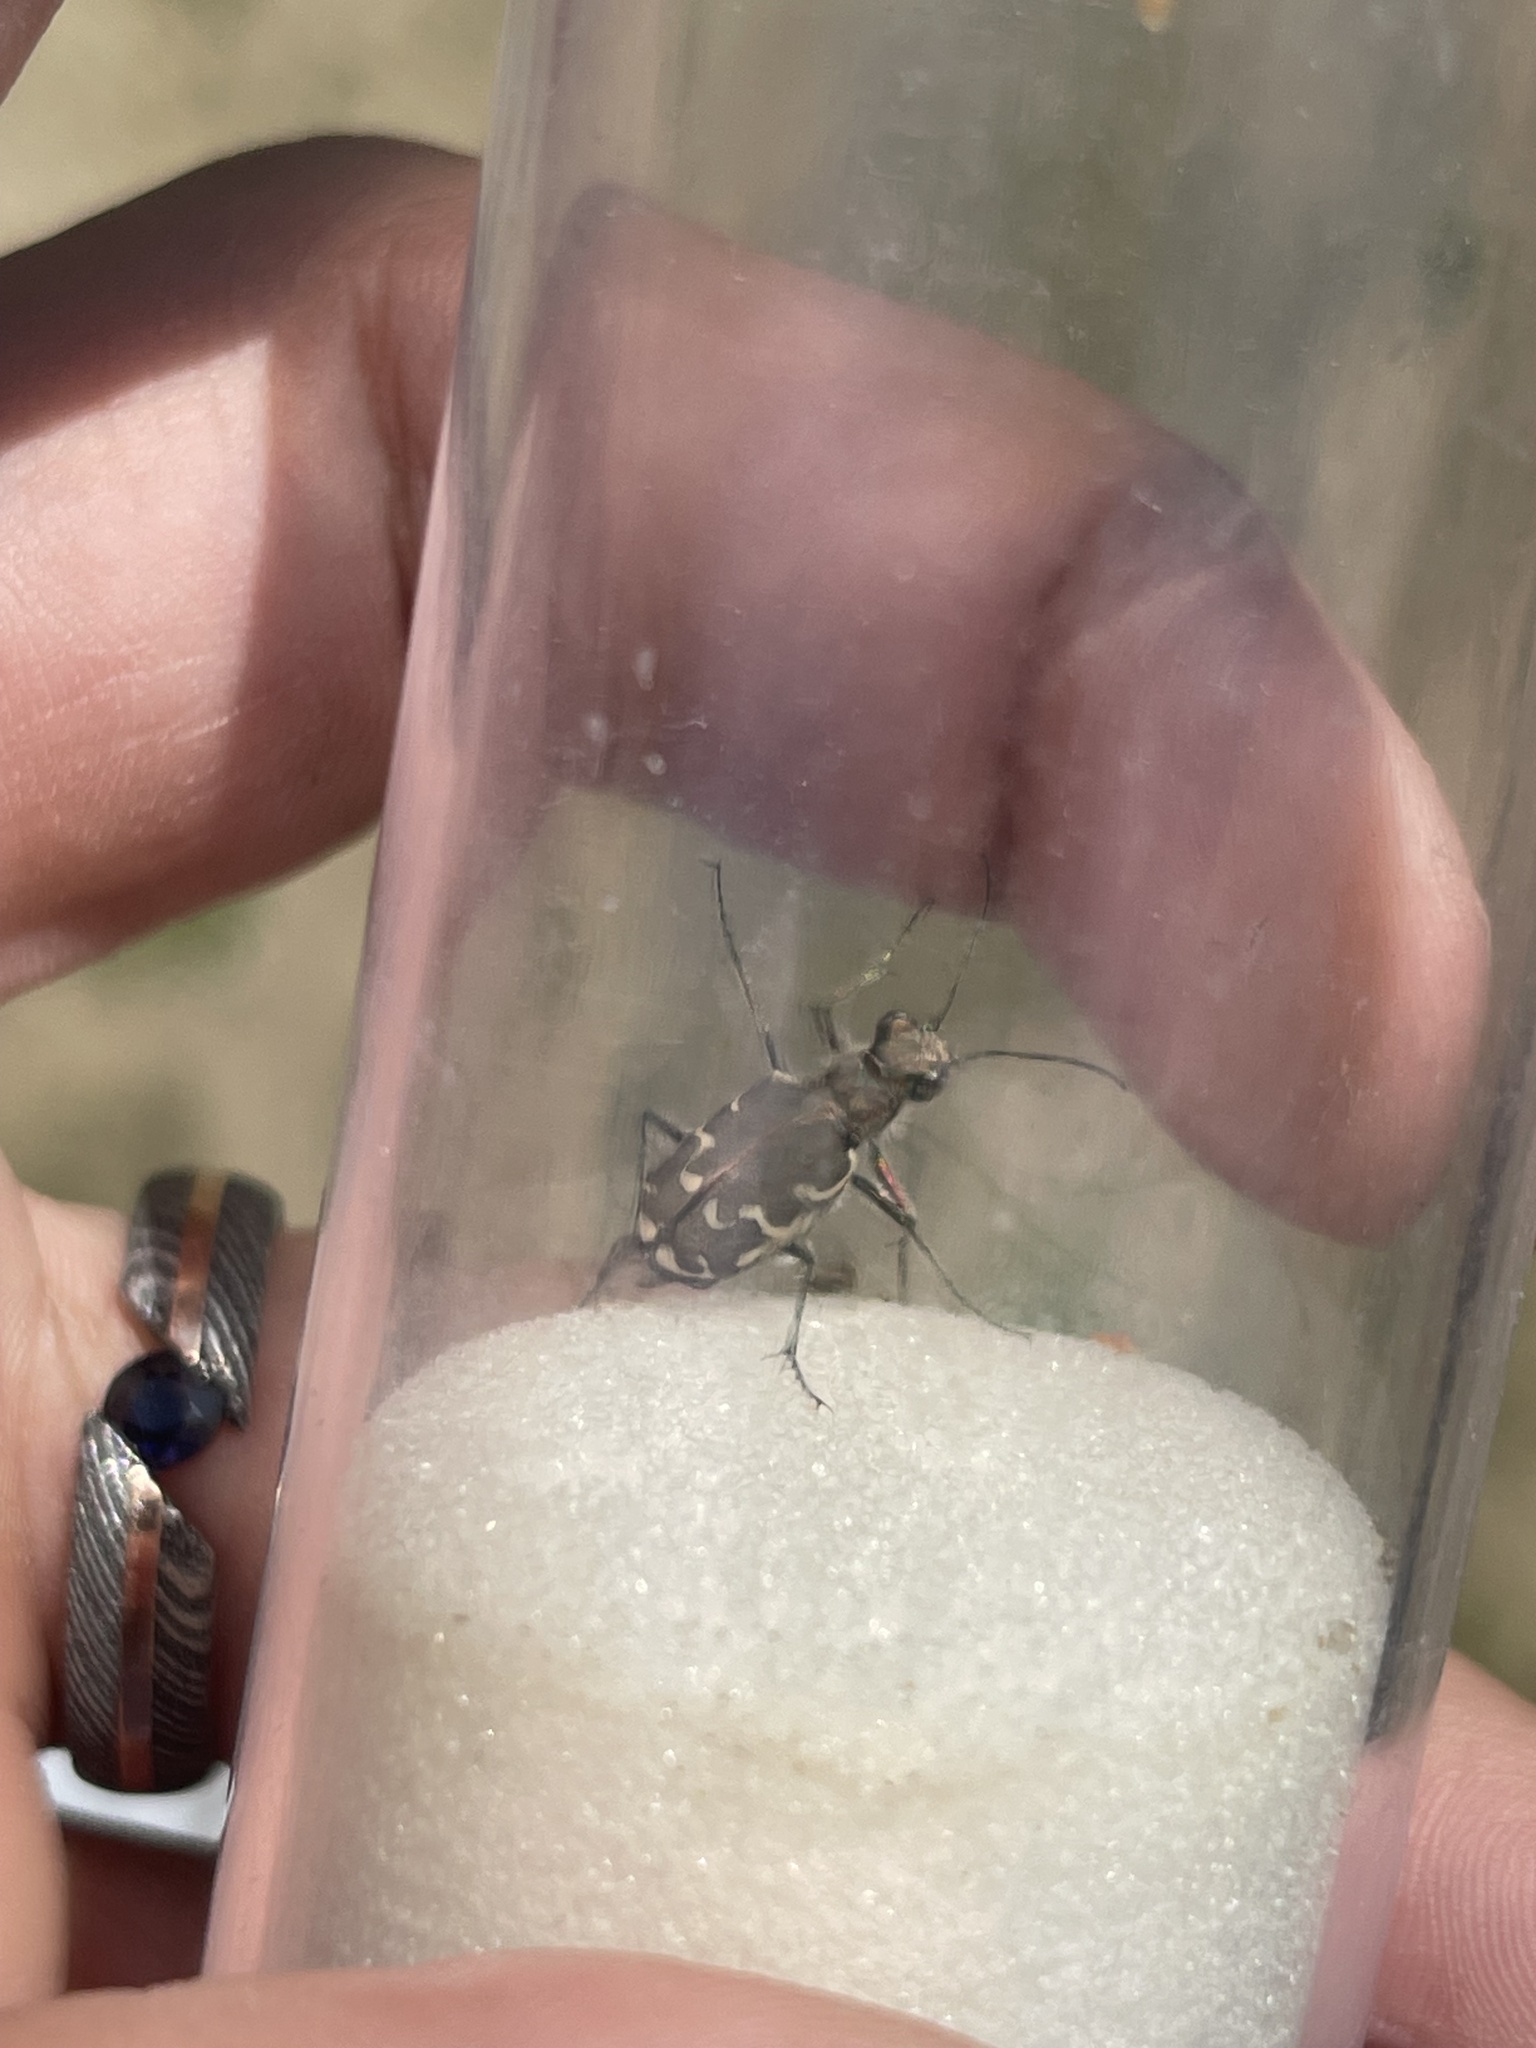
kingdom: Animalia
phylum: Arthropoda
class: Insecta
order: Coleoptera
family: Carabidae
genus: Cicindela
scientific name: Cicindela repanda
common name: Bronzed tiger beetle
